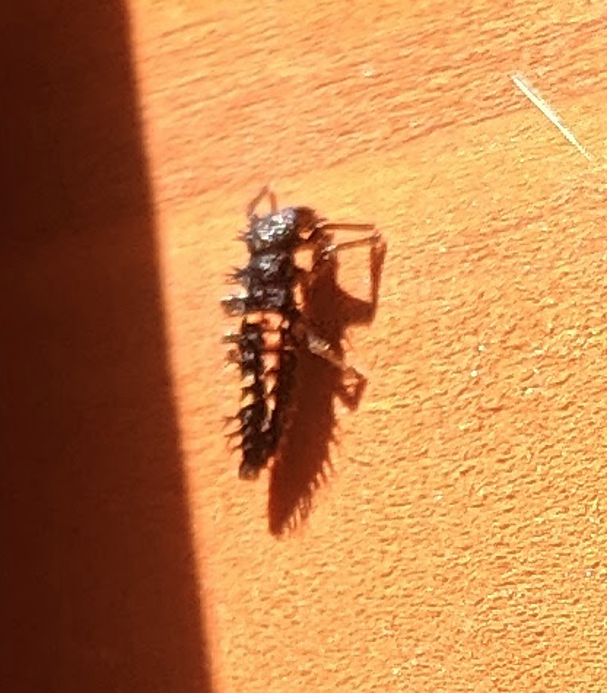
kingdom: Animalia
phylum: Arthropoda
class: Insecta
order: Coleoptera
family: Coccinellidae
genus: Harmonia
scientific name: Harmonia axyridis
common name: Harlequin ladybird
